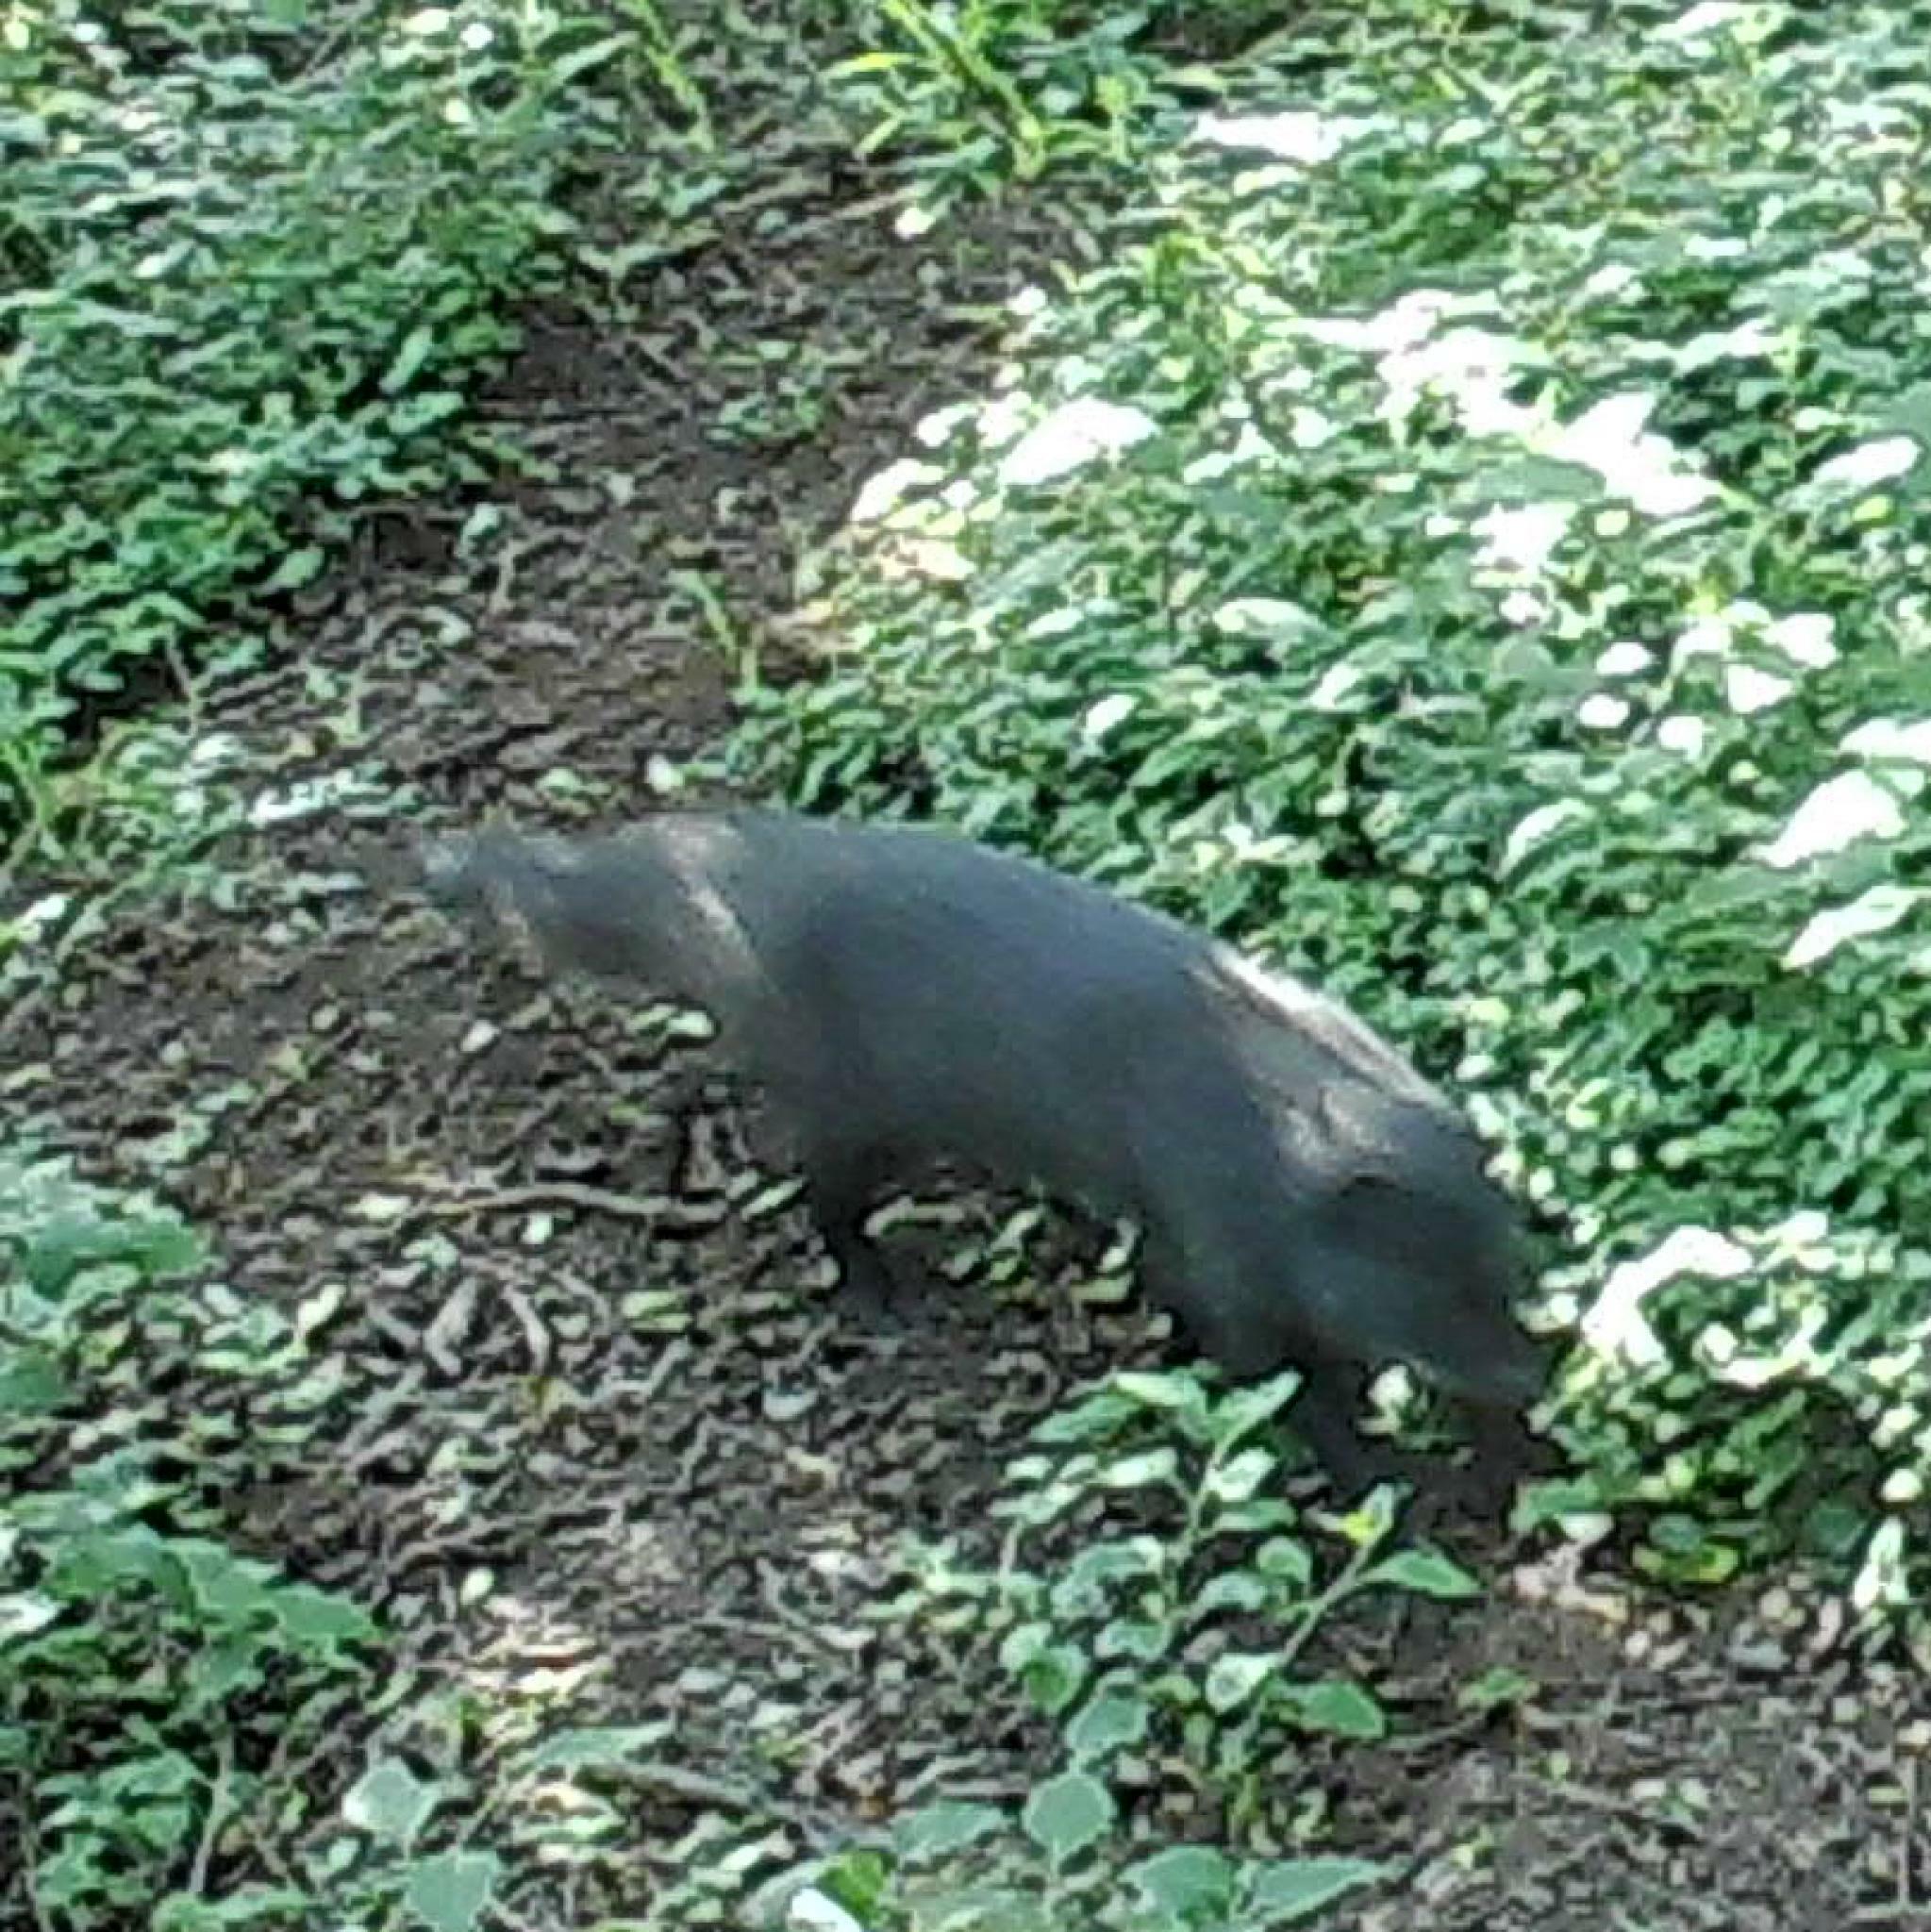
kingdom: Animalia
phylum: Chordata
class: Mammalia
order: Carnivora
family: Herpestidae
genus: Atilax
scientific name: Atilax paludinosus
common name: Marsh mongoose
